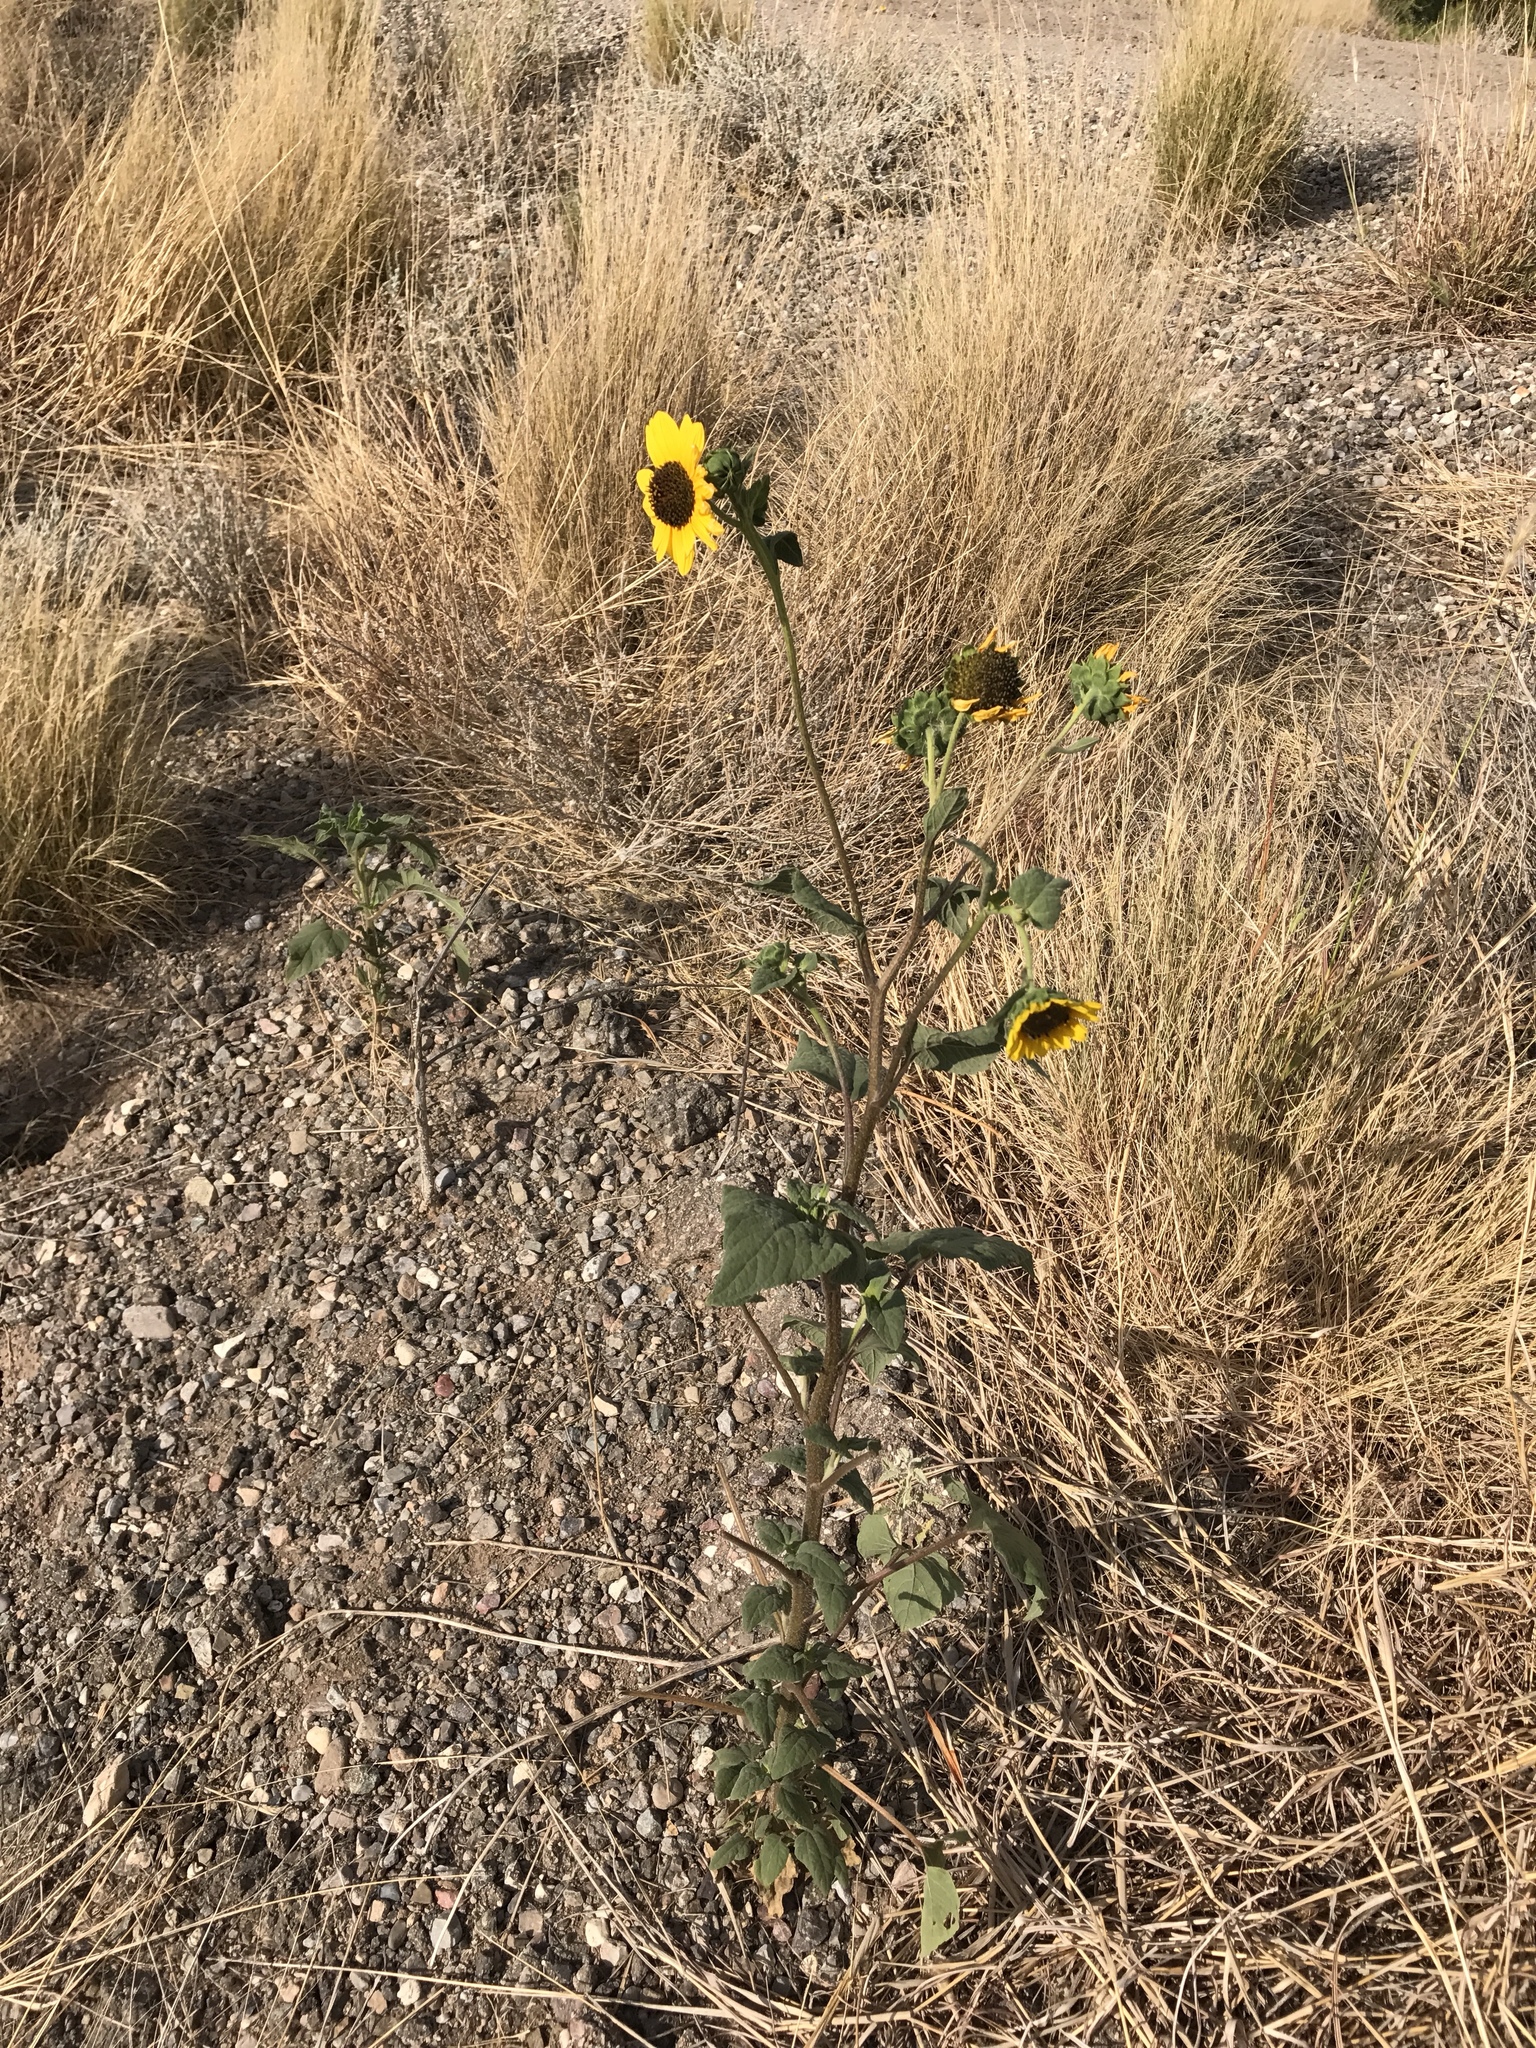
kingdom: Plantae
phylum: Tracheophyta
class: Magnoliopsida
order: Asterales
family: Asteraceae
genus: Helianthus
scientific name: Helianthus annuus
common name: Sunflower
